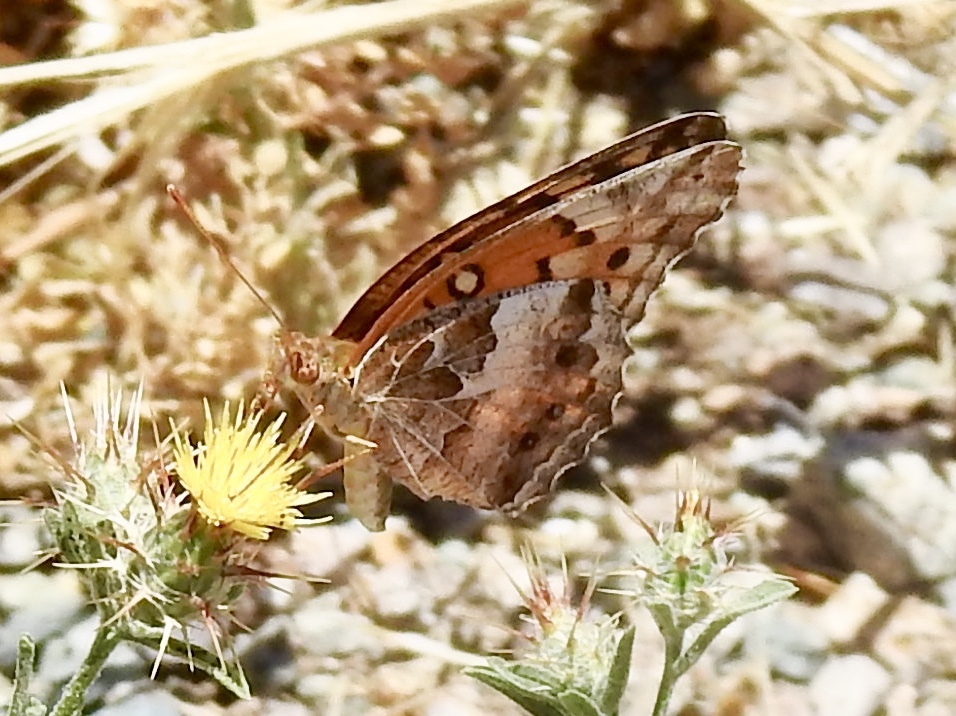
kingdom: Animalia
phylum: Arthropoda
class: Insecta
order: Lepidoptera
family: Nymphalidae
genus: Euptoieta
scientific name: Euptoieta claudia
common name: Variegated fritillary
